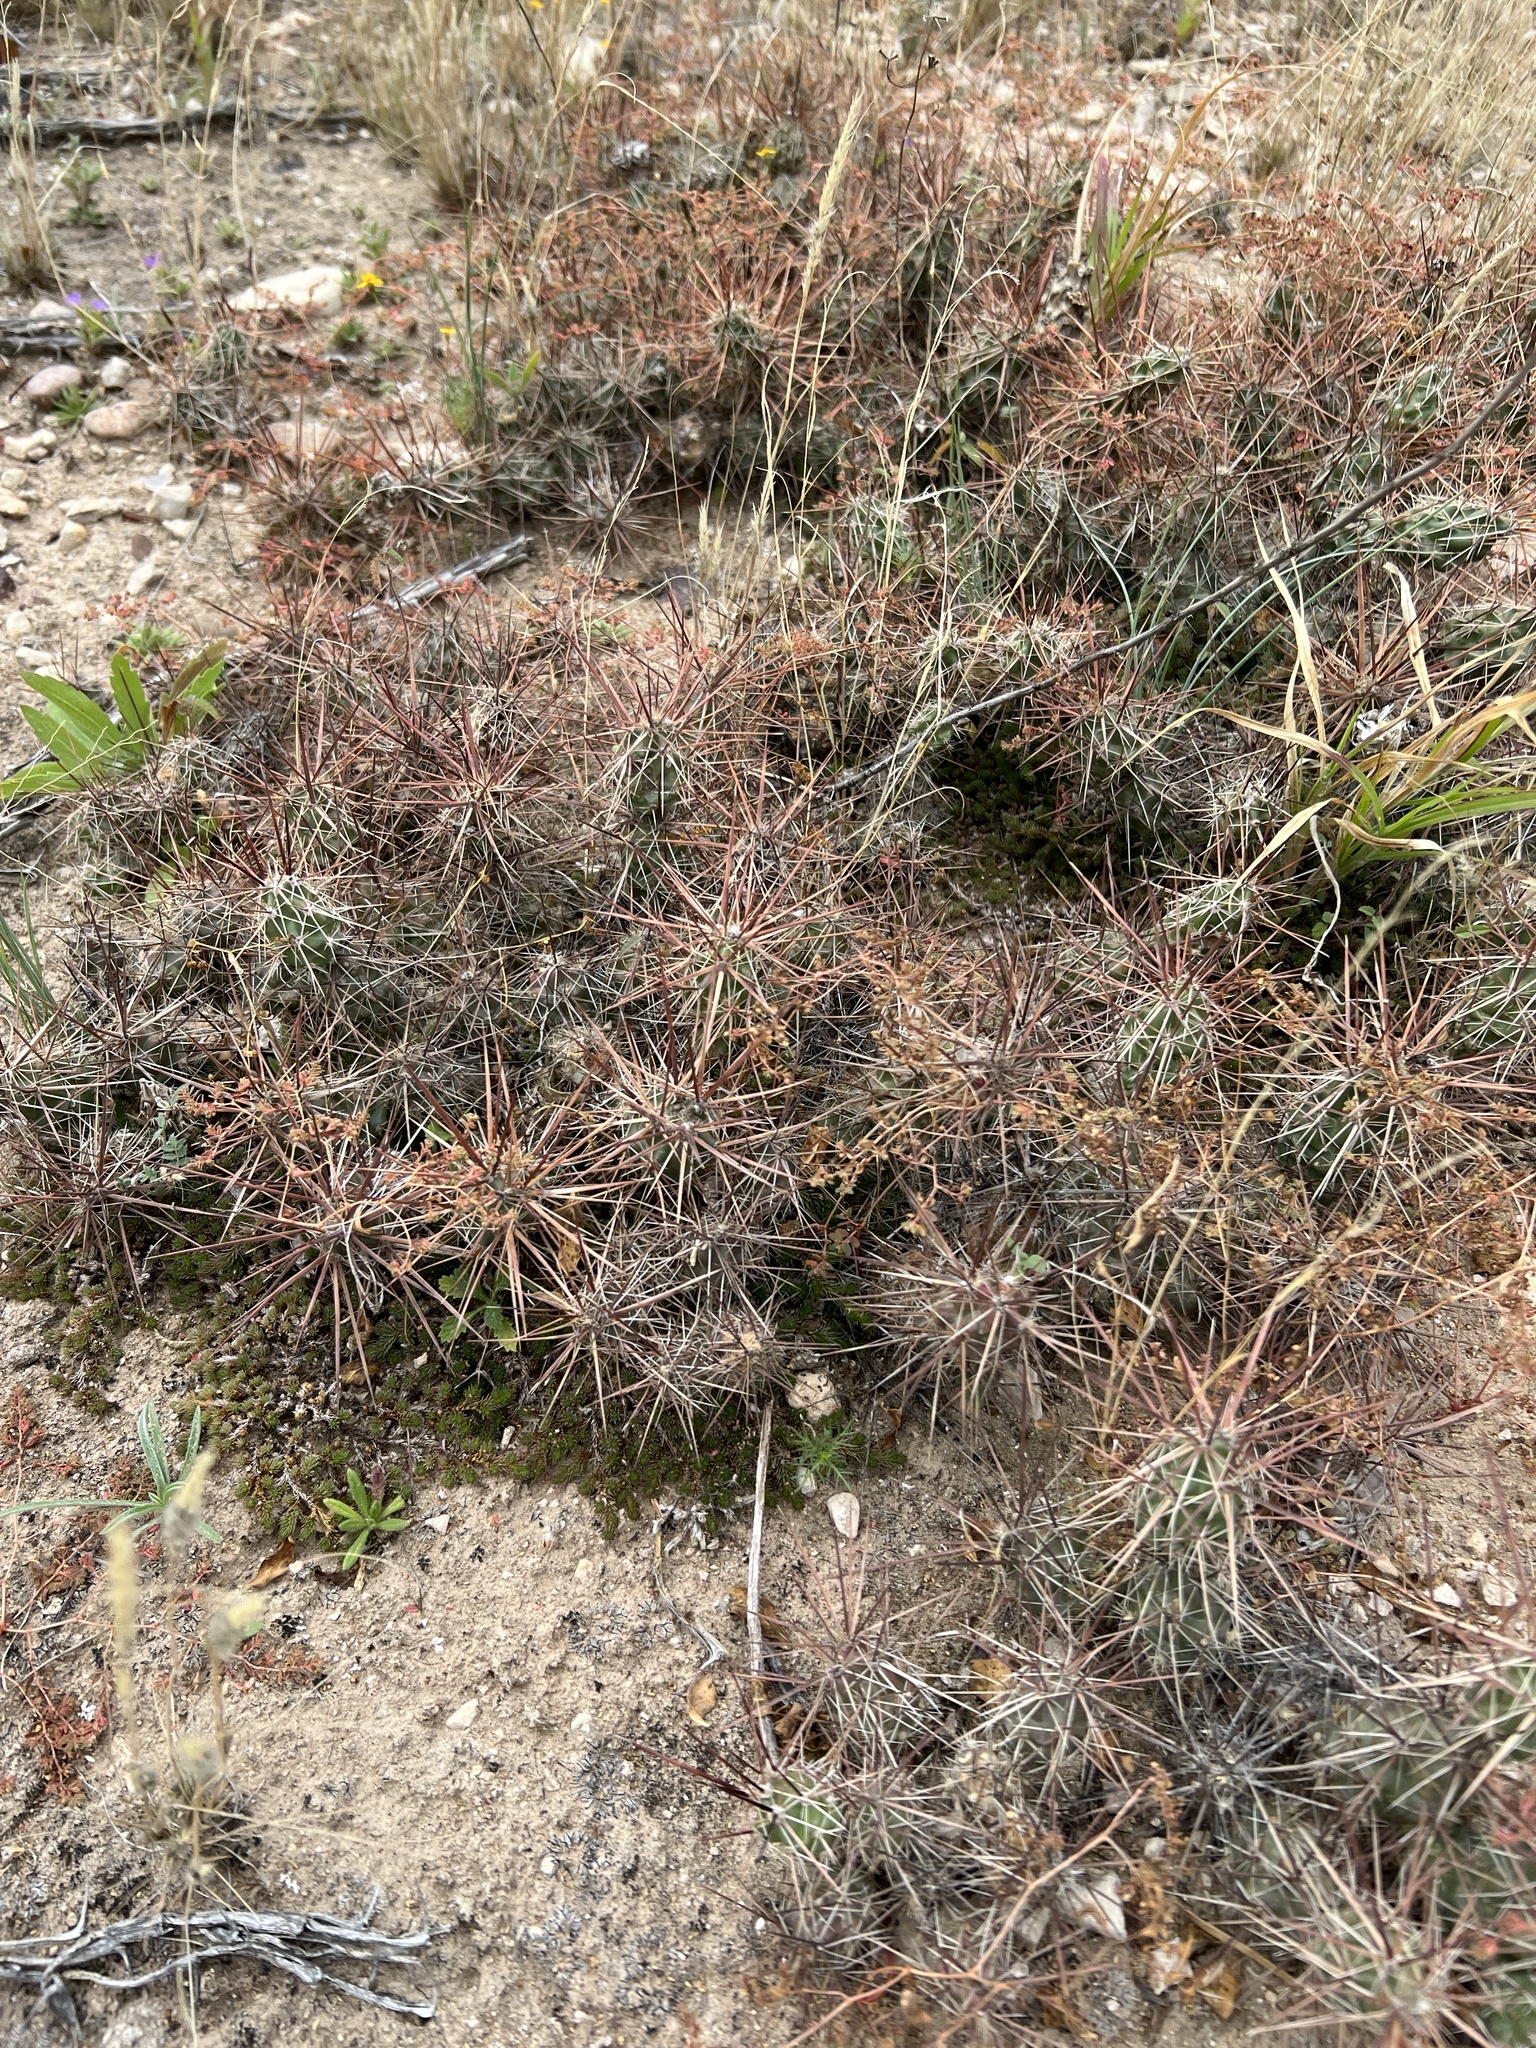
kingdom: Plantae
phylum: Tracheophyta
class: Magnoliopsida
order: Caryophyllales
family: Cactaceae
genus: Grusonia
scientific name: Grusonia schottii
